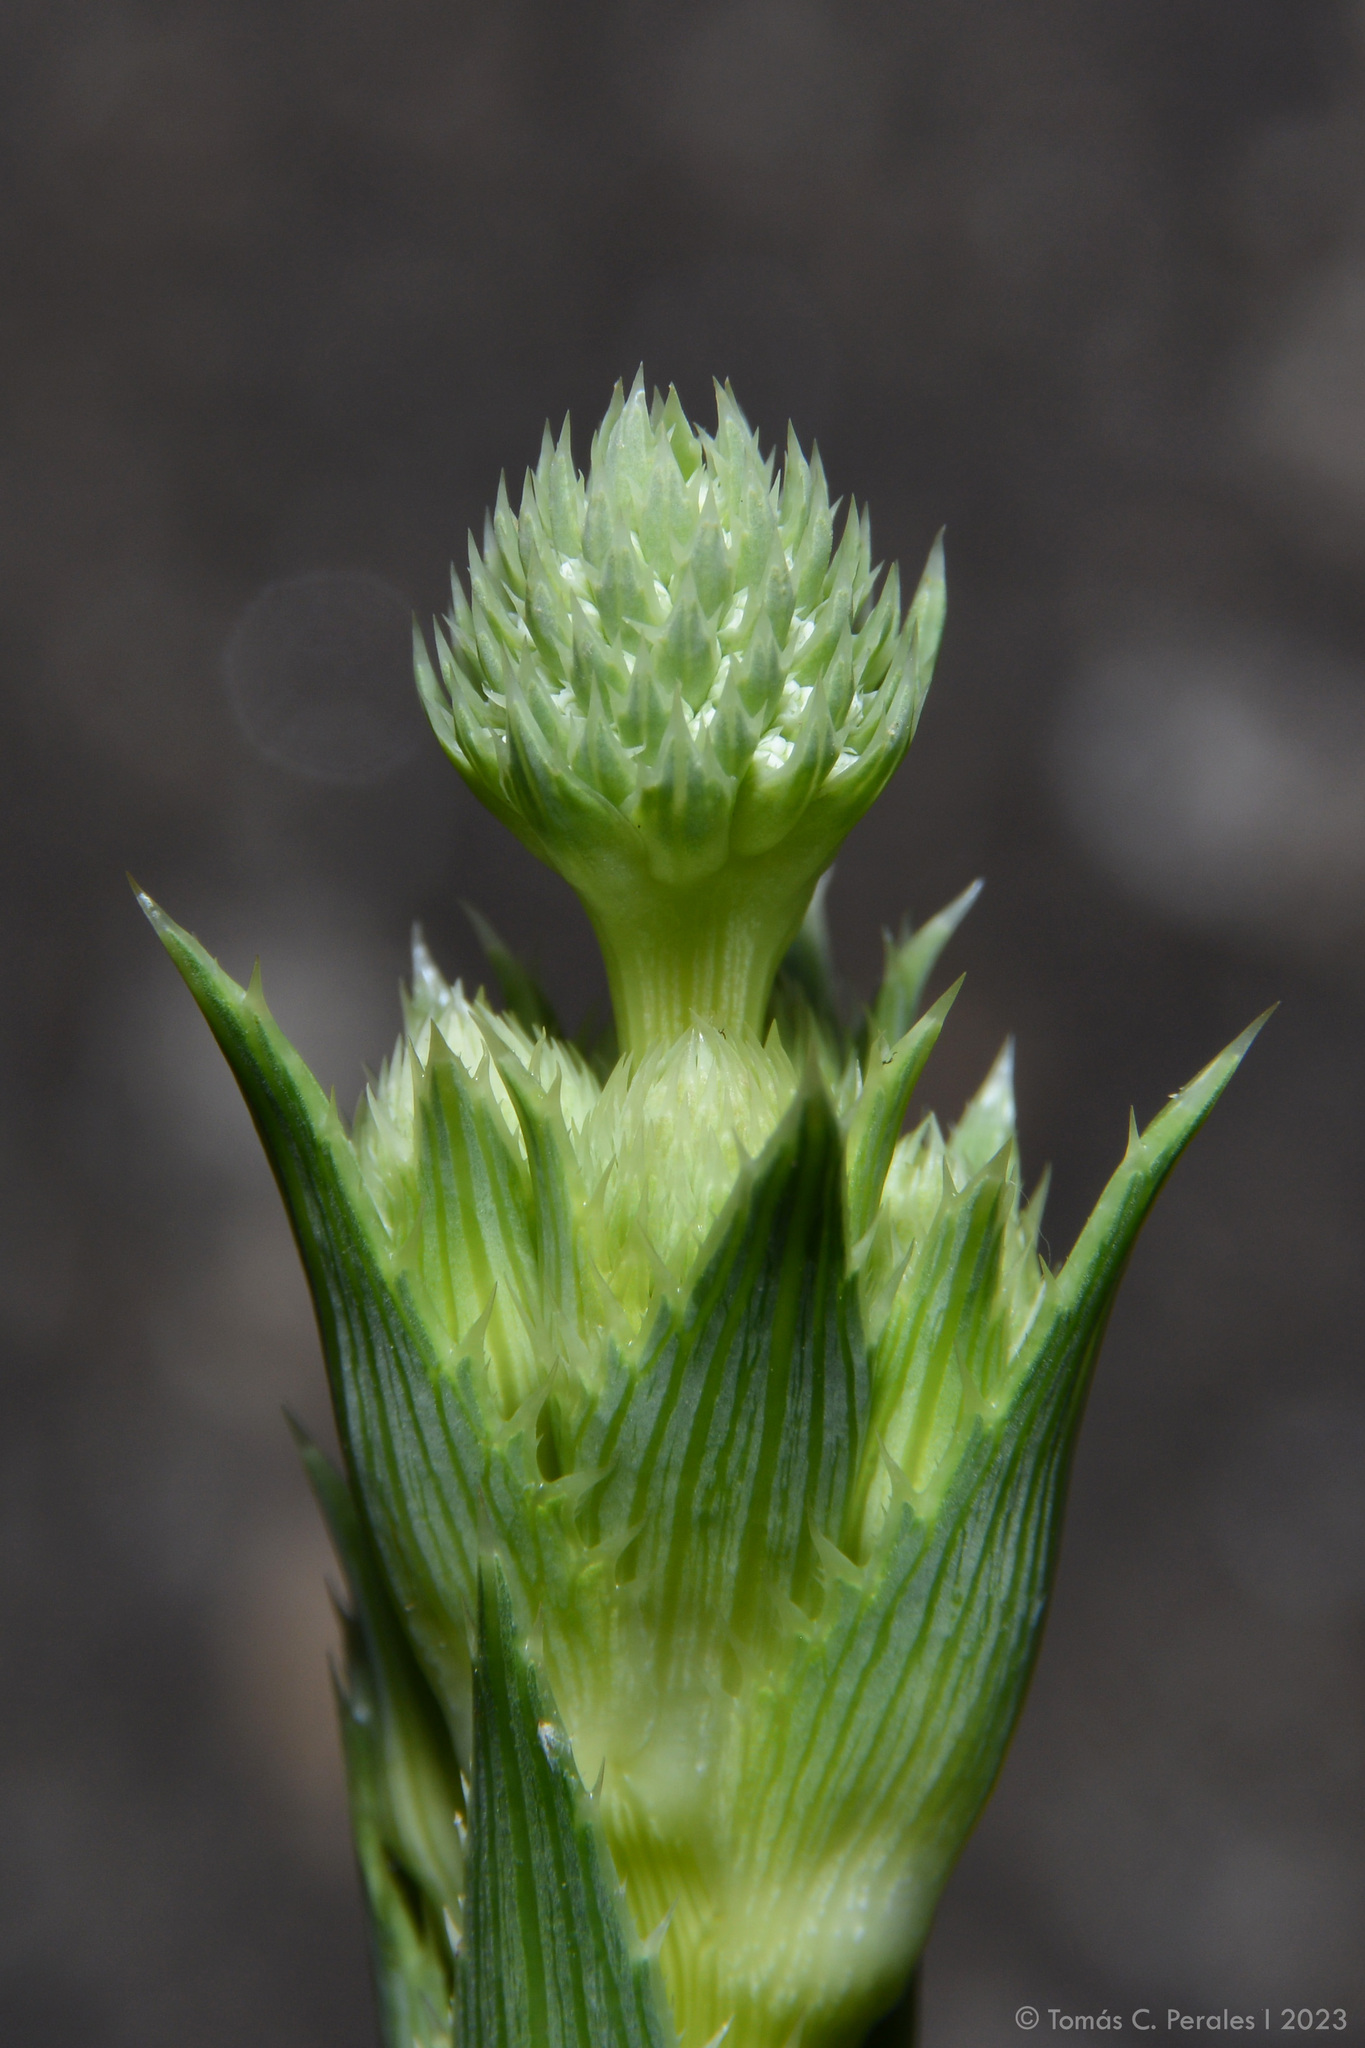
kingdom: Plantae
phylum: Tracheophyta
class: Magnoliopsida
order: Apiales
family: Apiaceae
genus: Eryngium
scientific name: Eryngium elegans
